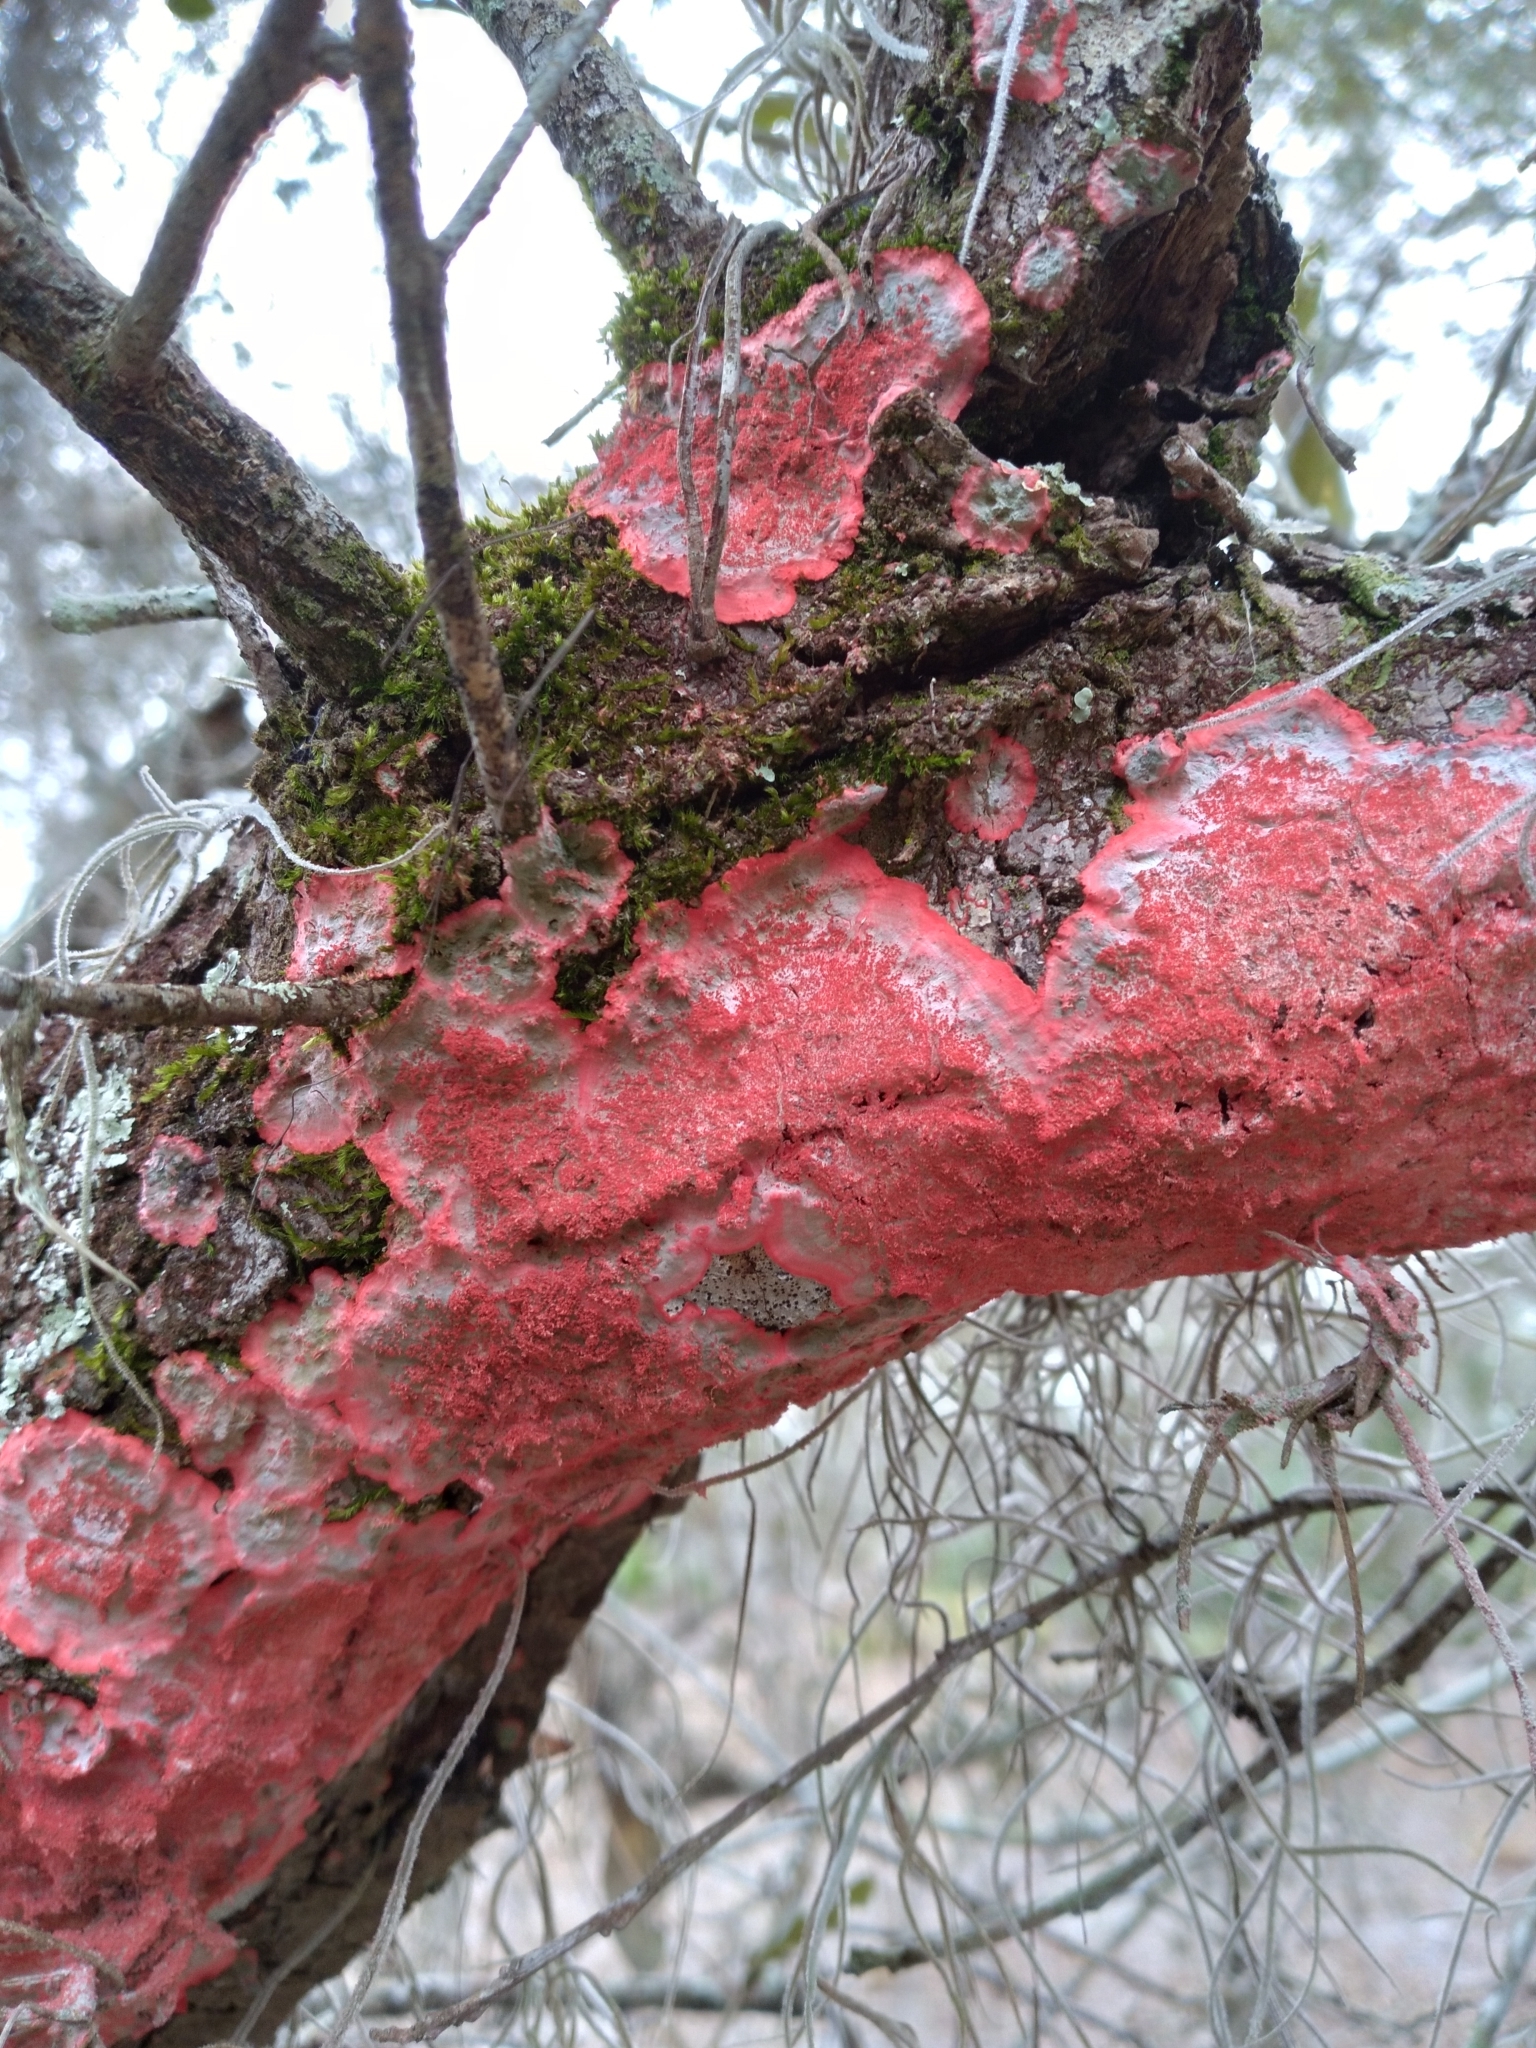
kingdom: Fungi
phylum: Ascomycota
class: Arthoniomycetes
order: Arthoniales
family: Arthoniaceae
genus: Herpothallon
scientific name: Herpothallon rubrocinctum
